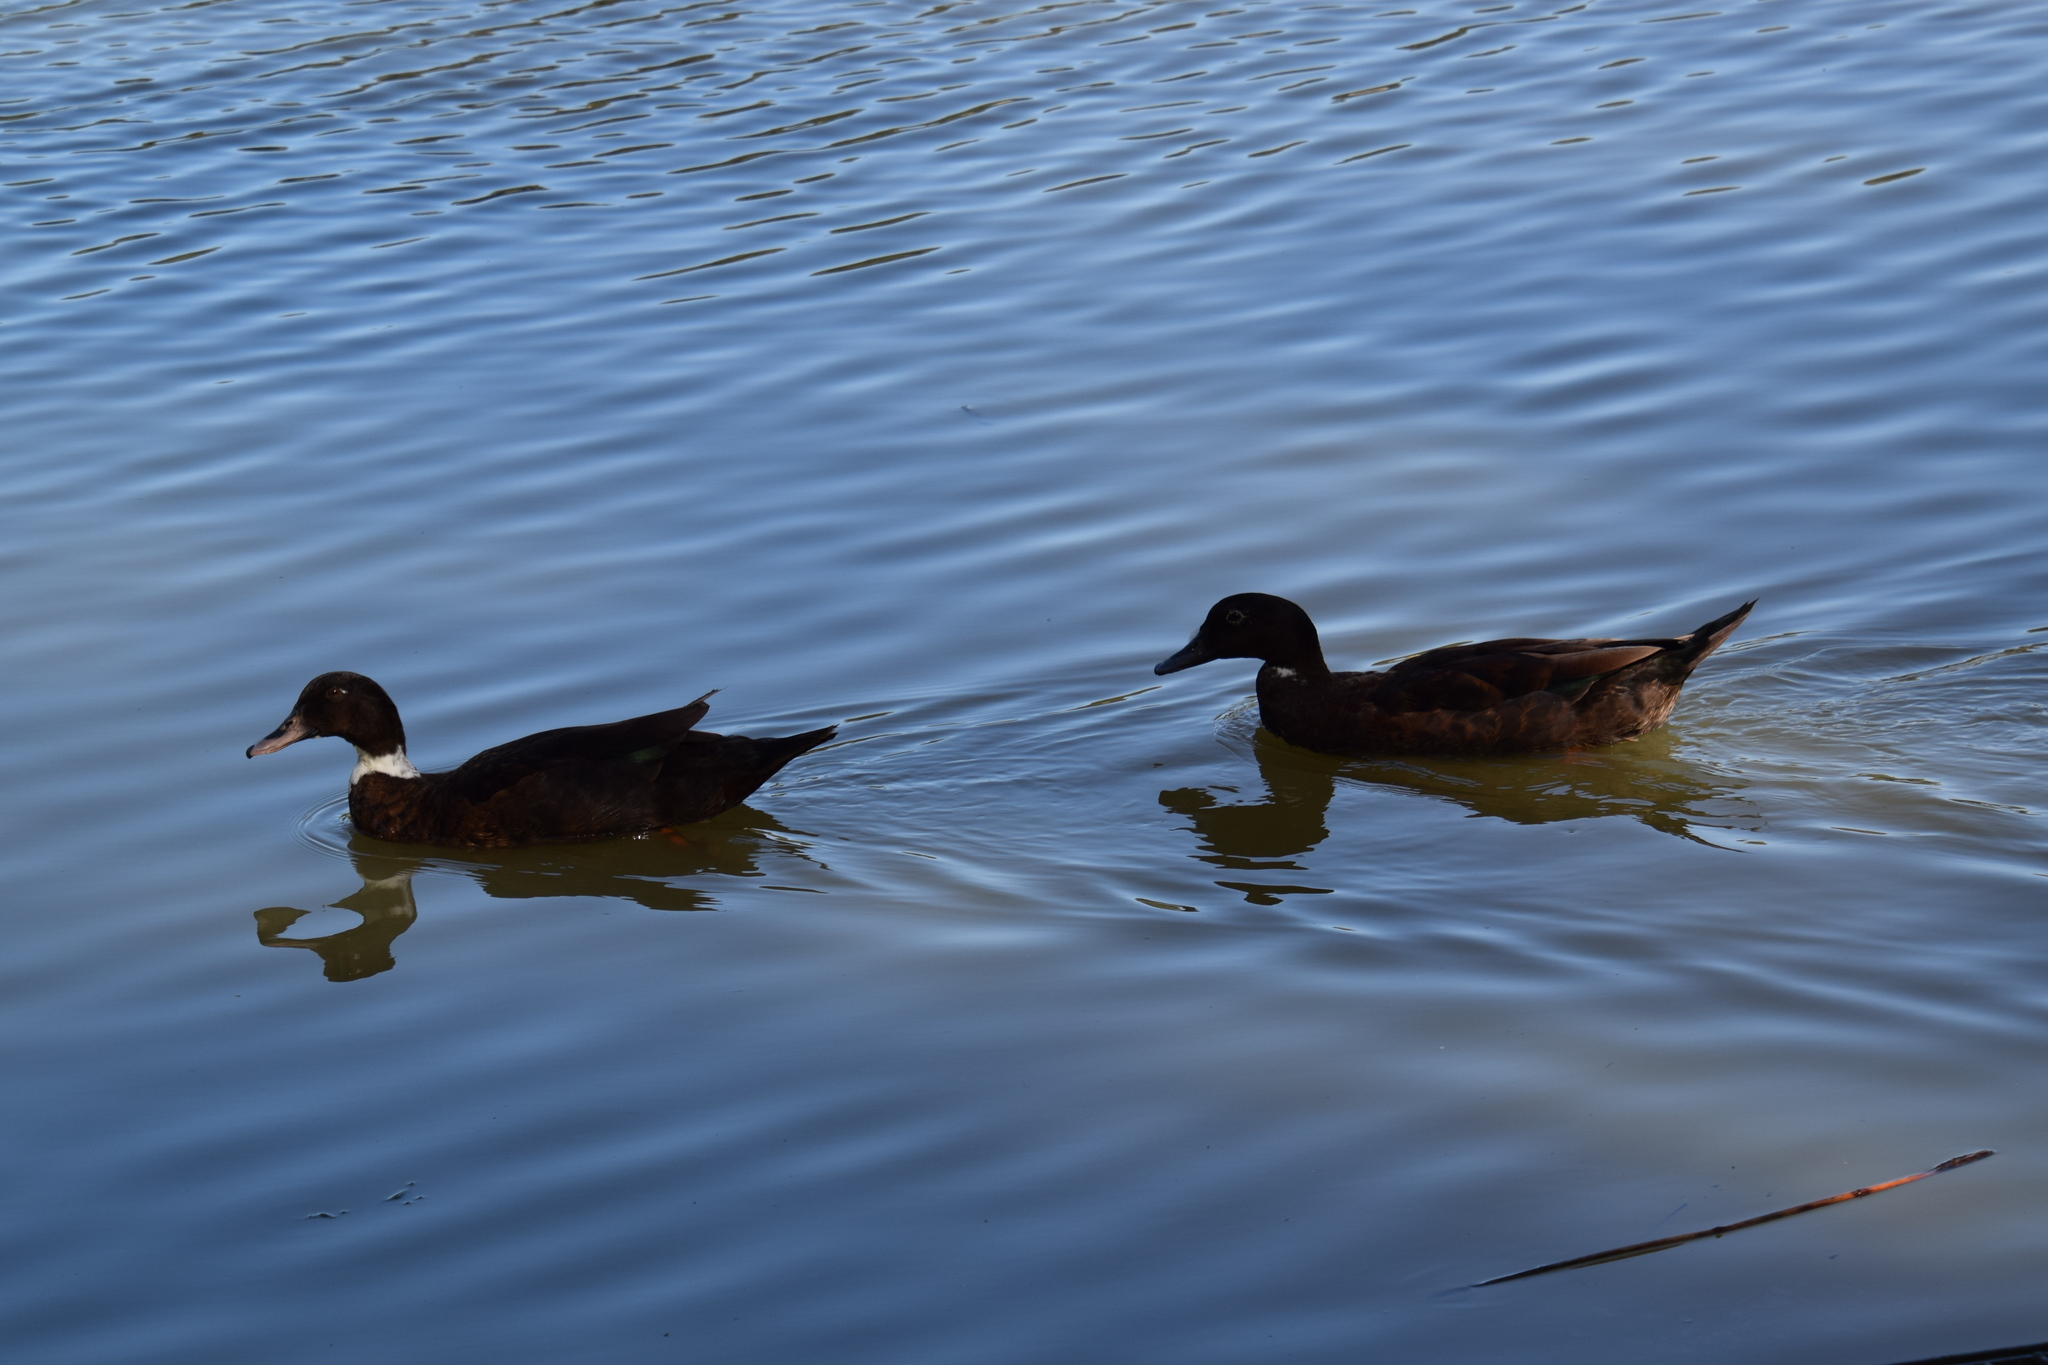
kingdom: Animalia
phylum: Chordata
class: Aves
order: Anseriformes
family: Anatidae
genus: Anas
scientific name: Anas platyrhynchos
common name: Mallard
